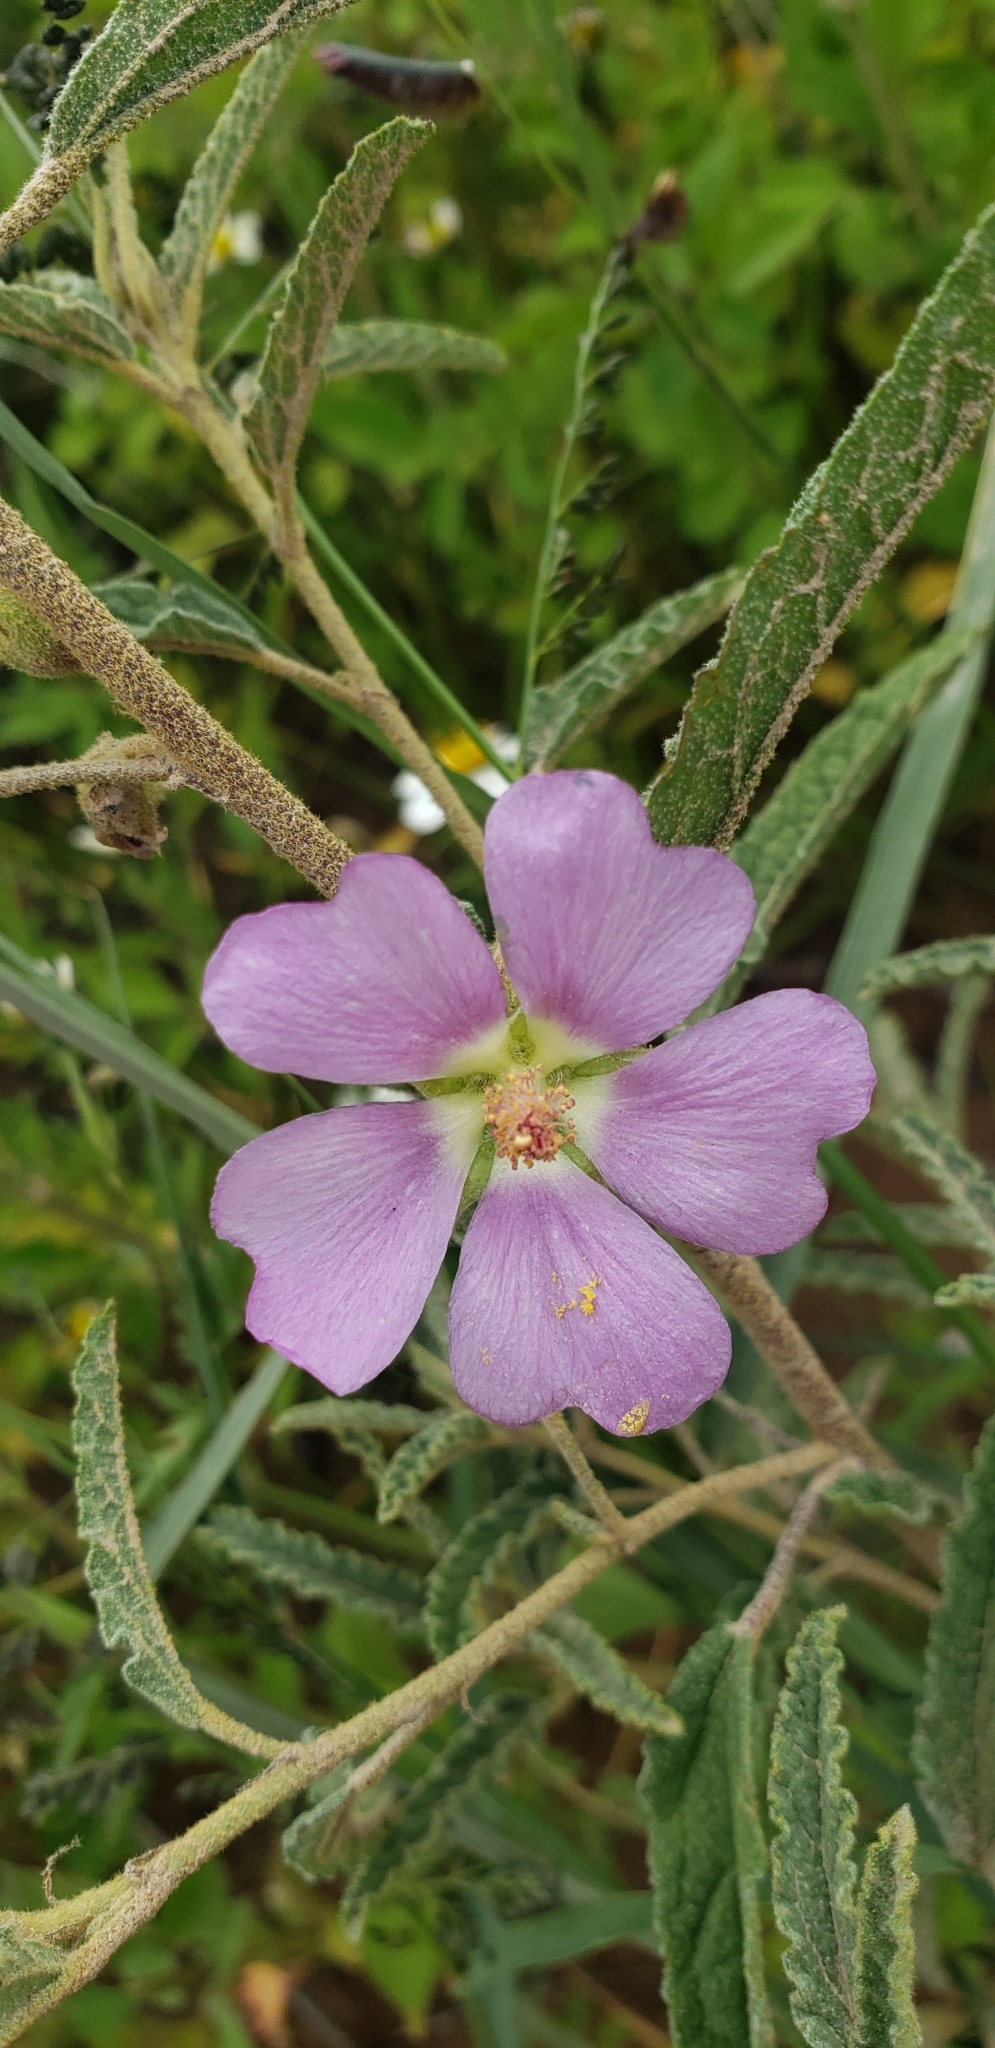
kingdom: Plantae
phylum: Tracheophyta
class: Magnoliopsida
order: Malvales
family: Malvaceae
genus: Sphaeralcea
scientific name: Sphaeralcea angustifolia
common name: Copper globe-mallow
